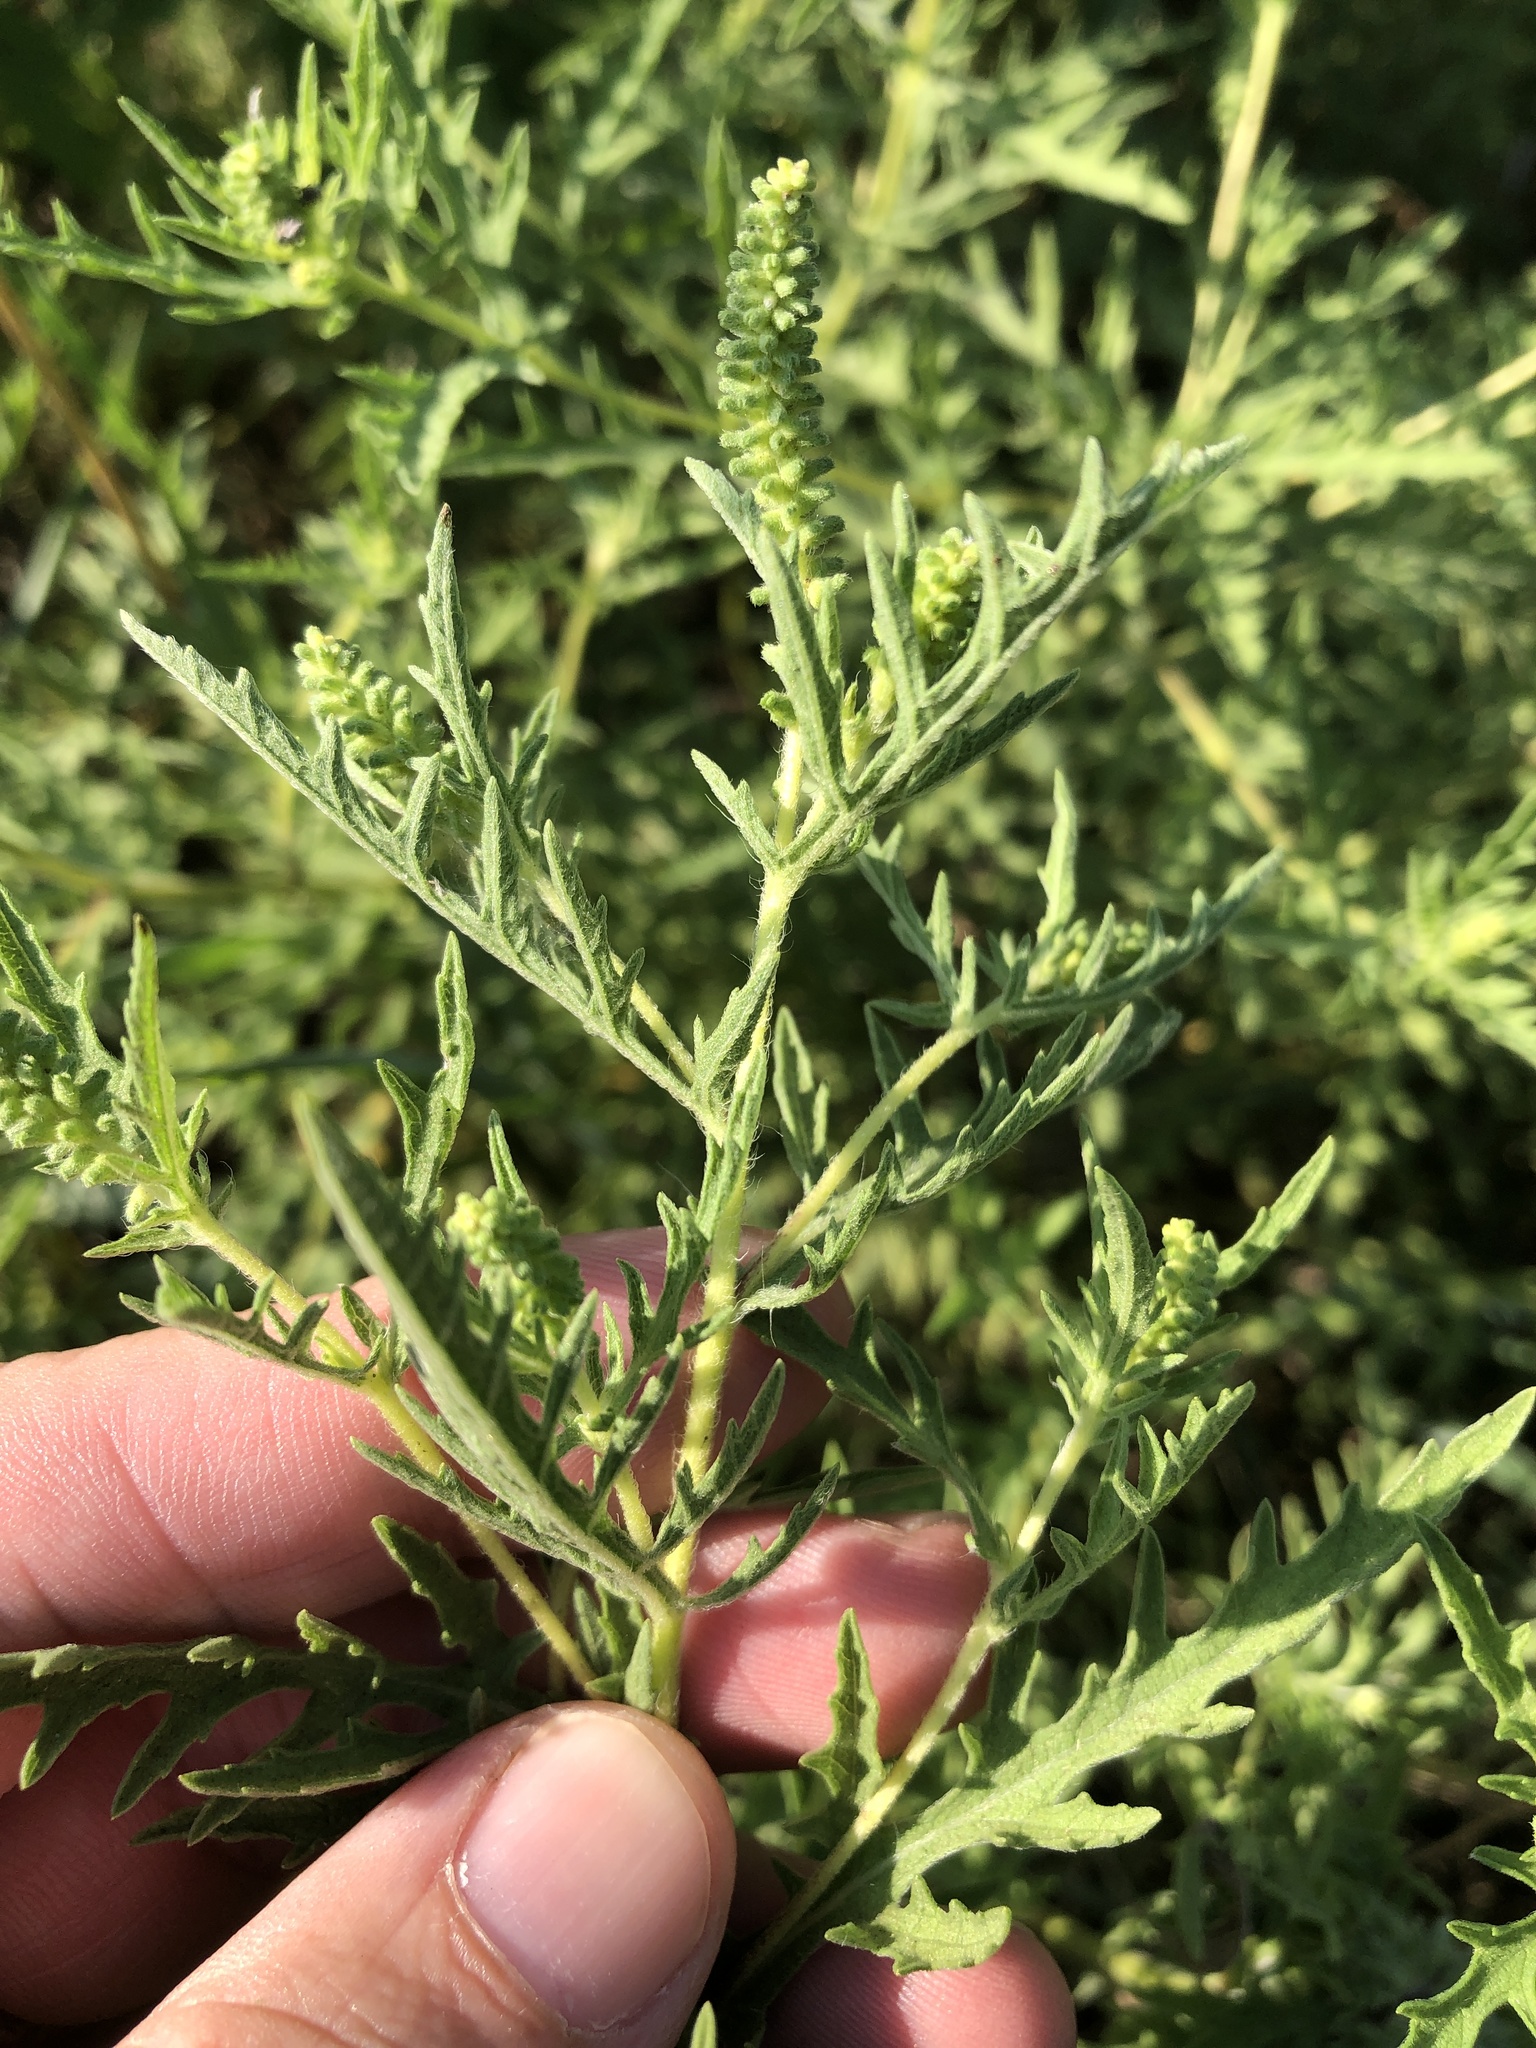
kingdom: Plantae
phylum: Tracheophyta
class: Magnoliopsida
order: Asterales
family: Asteraceae
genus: Ambrosia
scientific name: Ambrosia psilostachya
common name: Perennial ragweed
